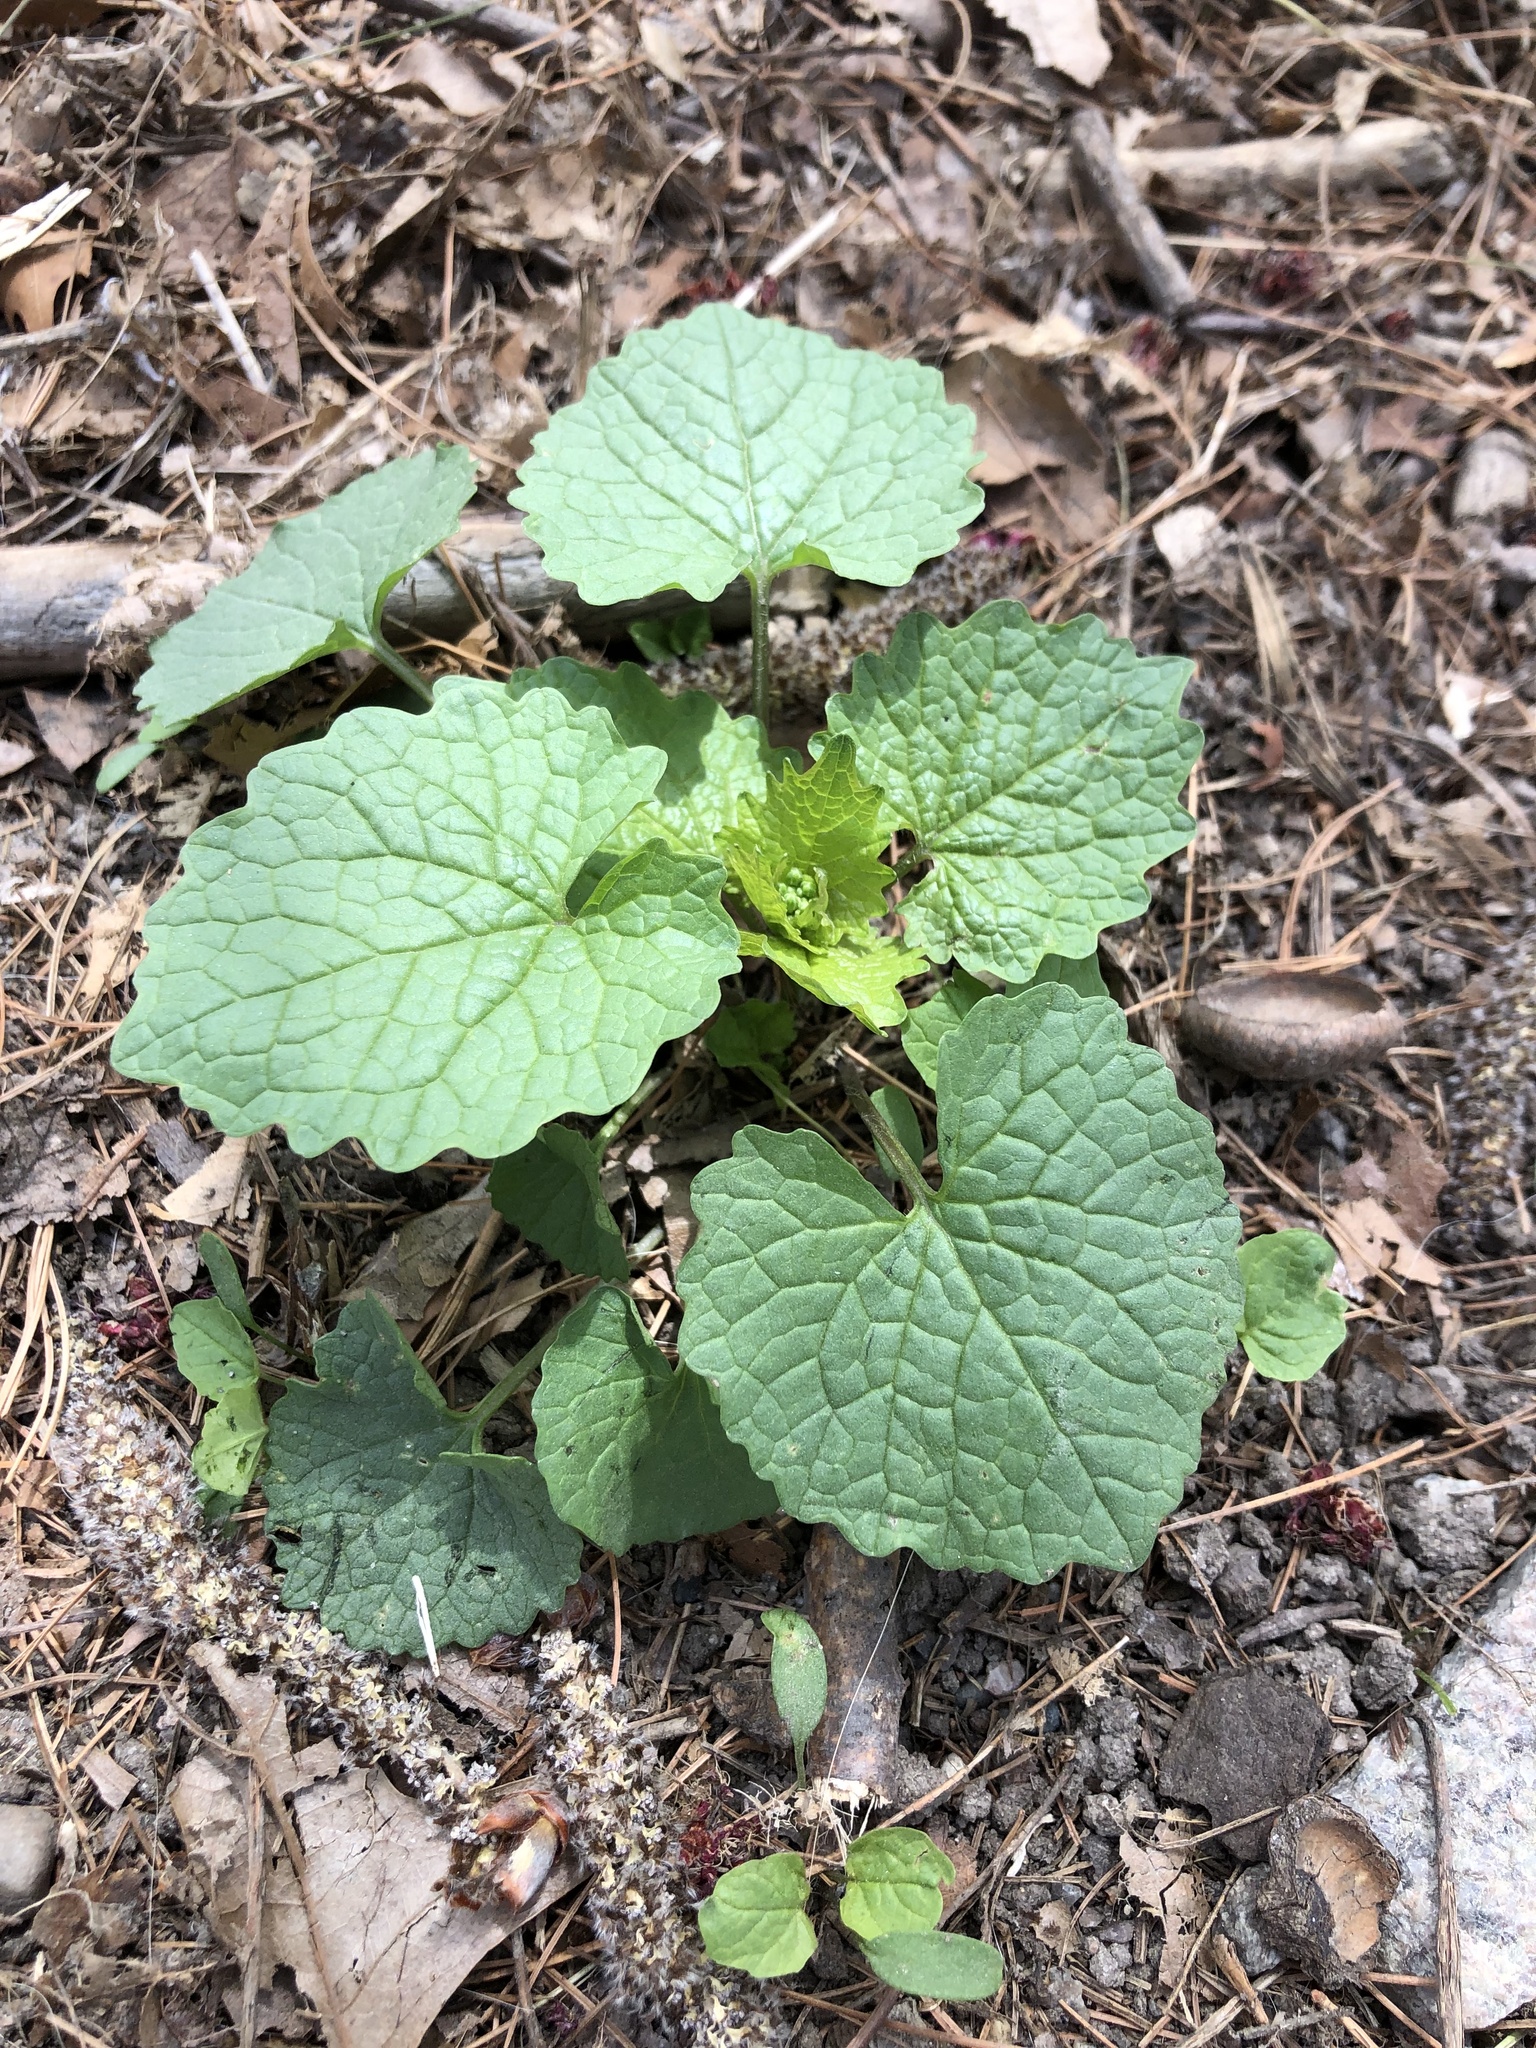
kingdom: Plantae
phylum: Tracheophyta
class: Magnoliopsida
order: Brassicales
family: Brassicaceae
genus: Alliaria
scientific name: Alliaria petiolata
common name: Garlic mustard
